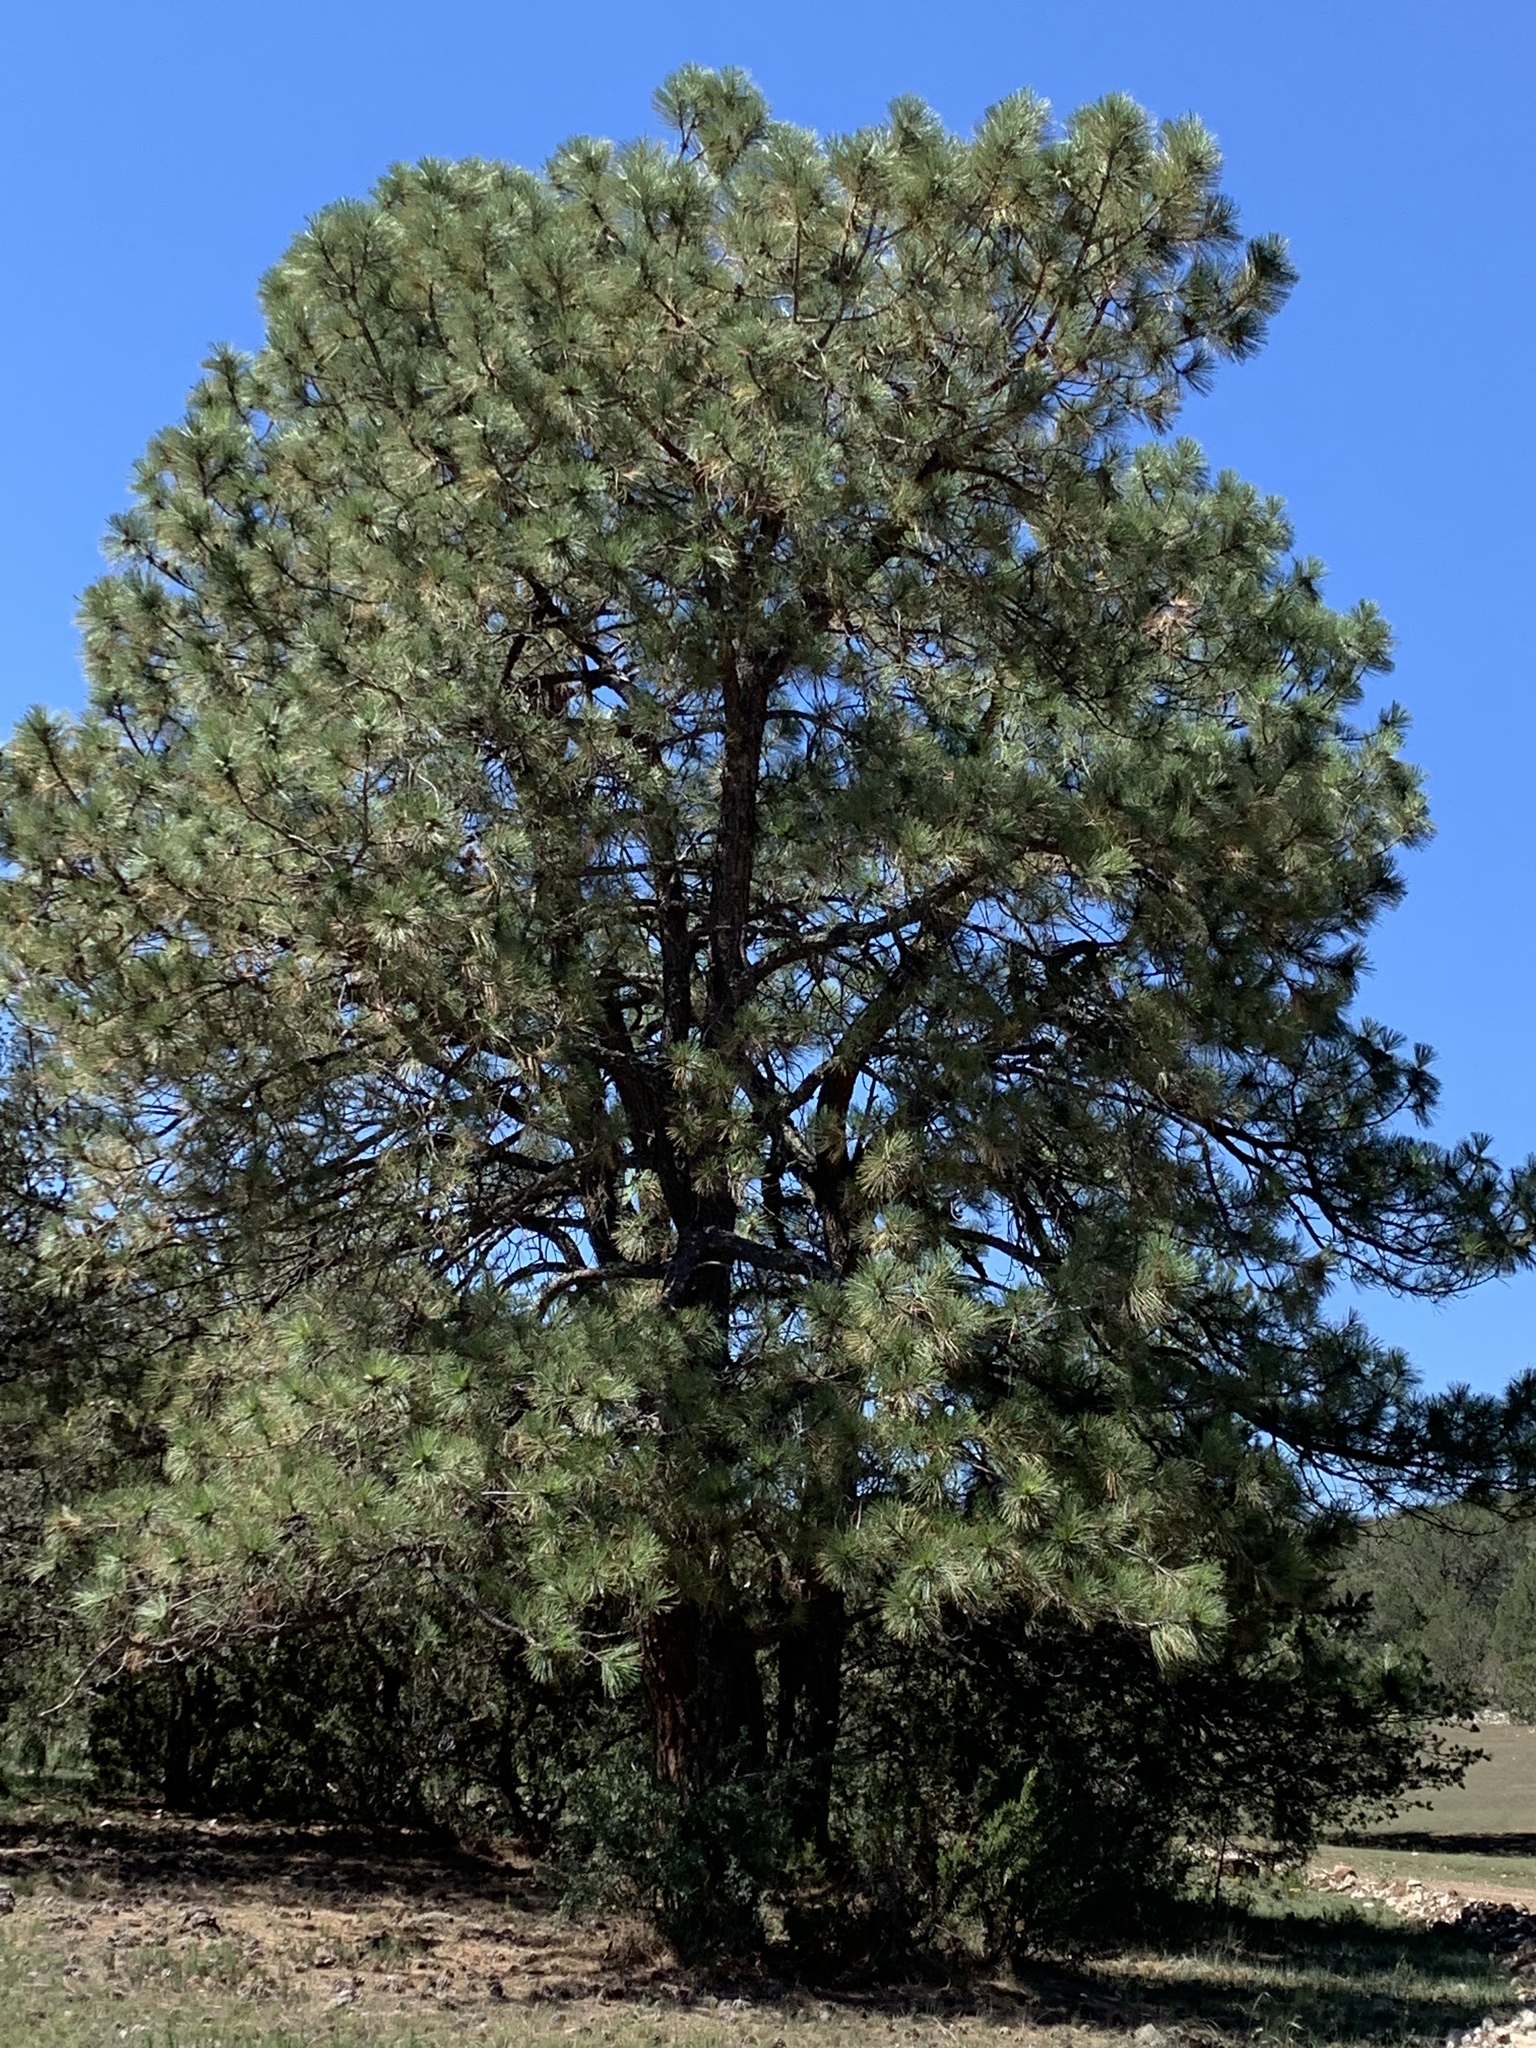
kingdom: Plantae
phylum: Tracheophyta
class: Pinopsida
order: Pinales
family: Pinaceae
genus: Pinus
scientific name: Pinus ponderosa
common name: Western yellow-pine
